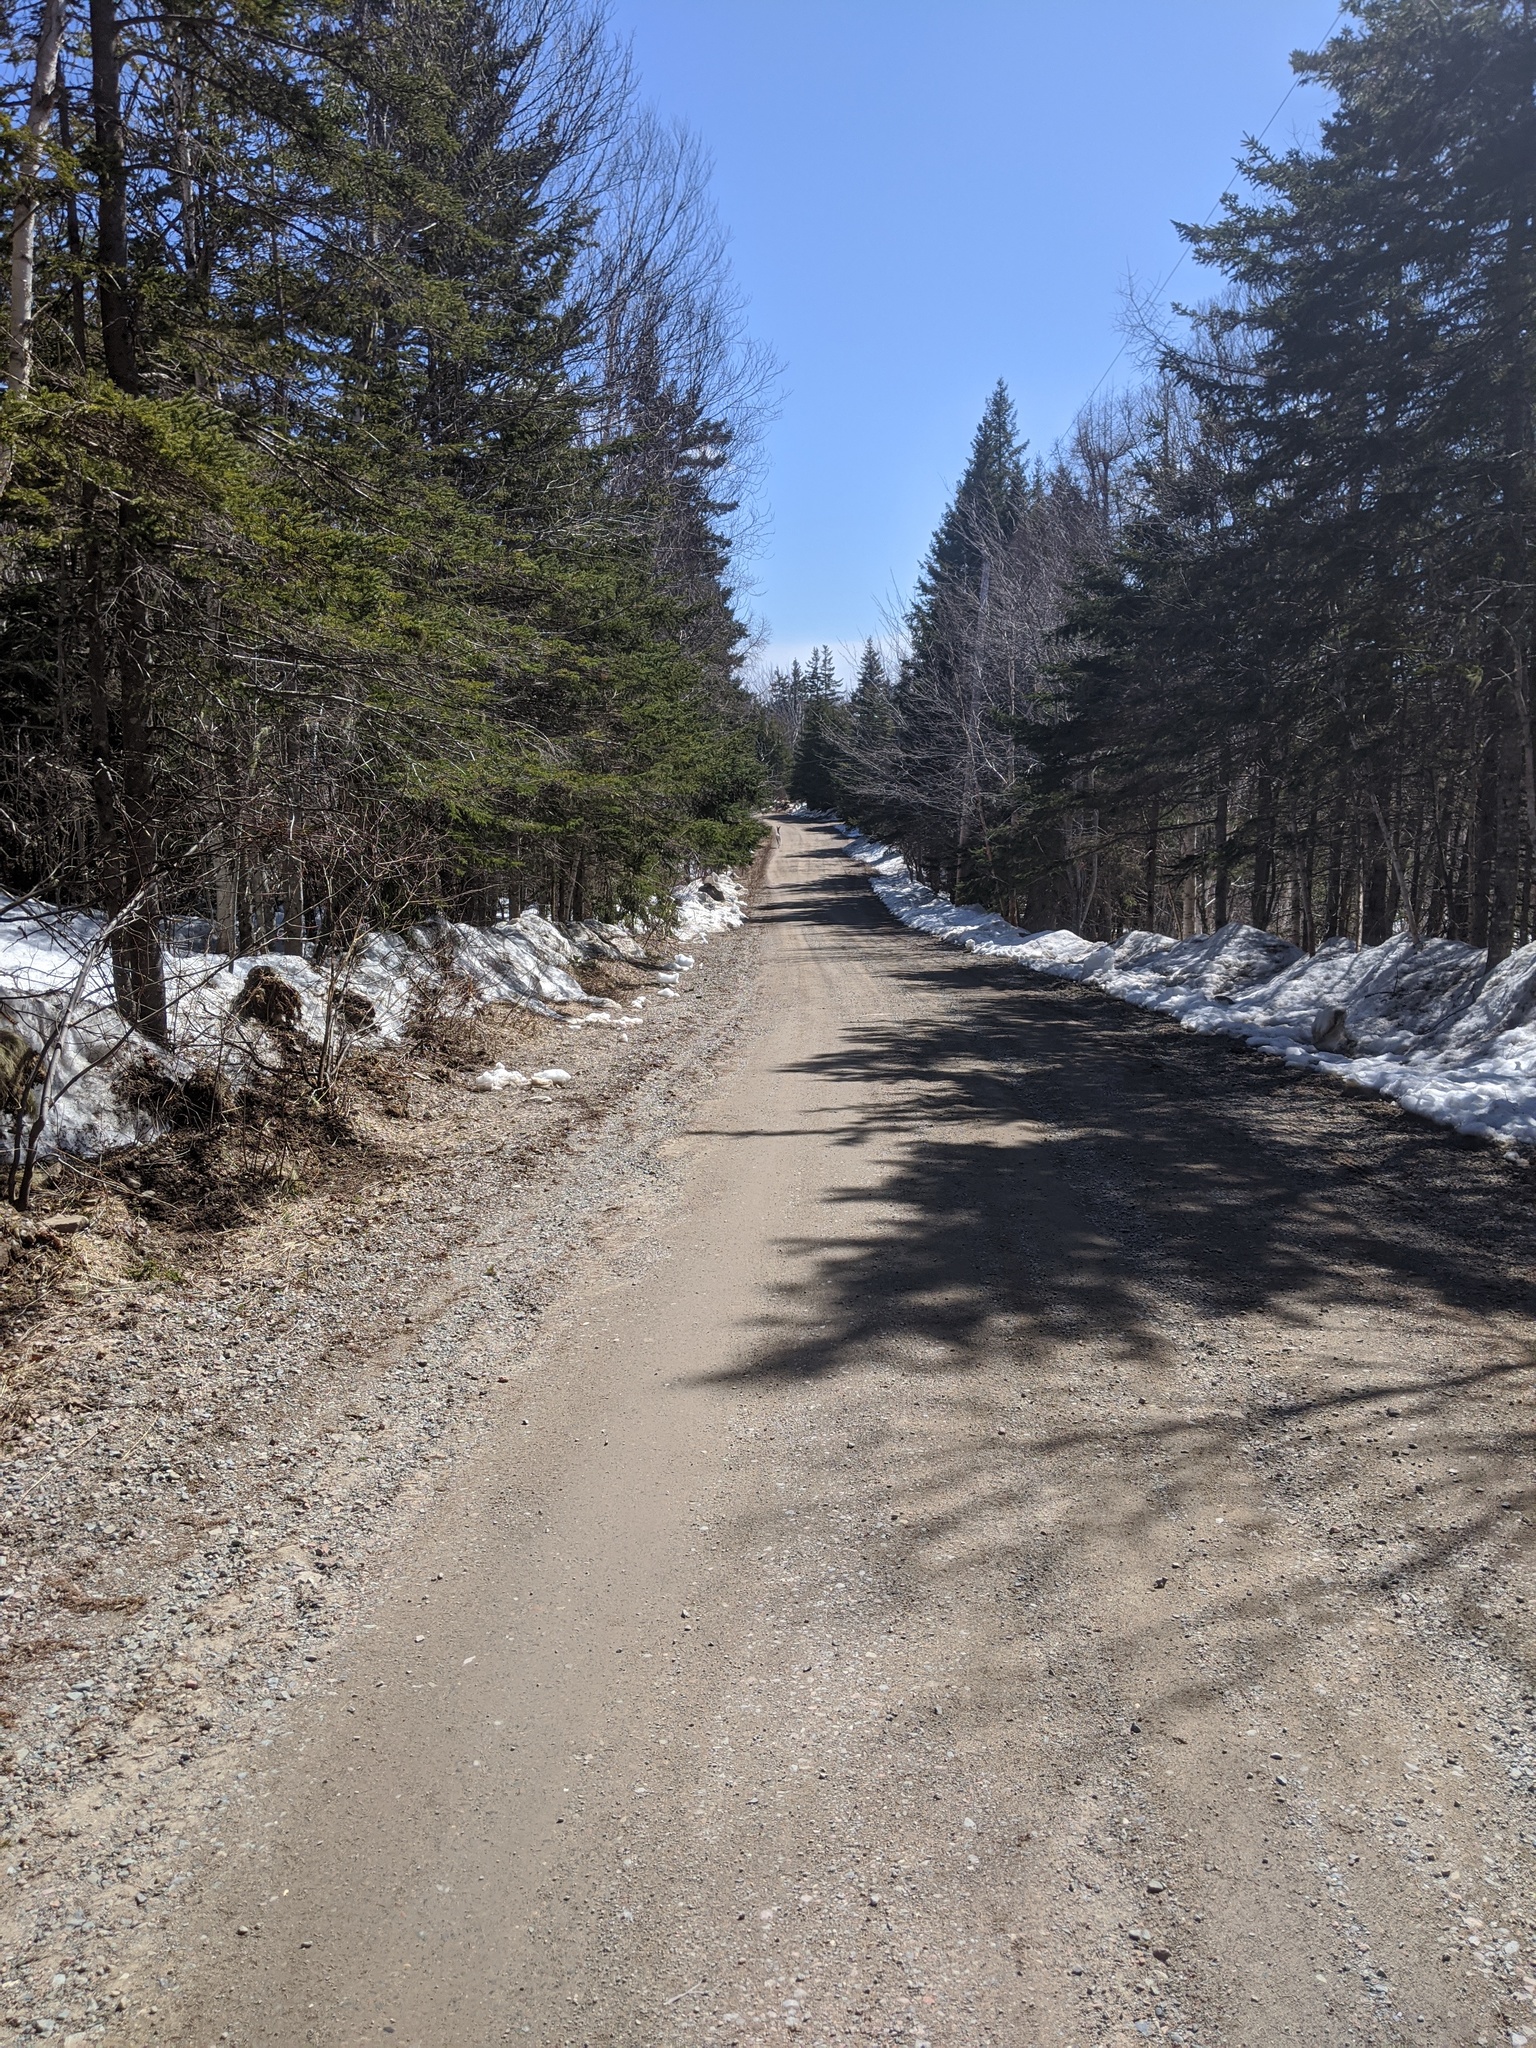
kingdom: Animalia
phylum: Chordata
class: Mammalia
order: Artiodactyla
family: Cervidae
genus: Odocoileus
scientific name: Odocoileus virginianus
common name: White-tailed deer
